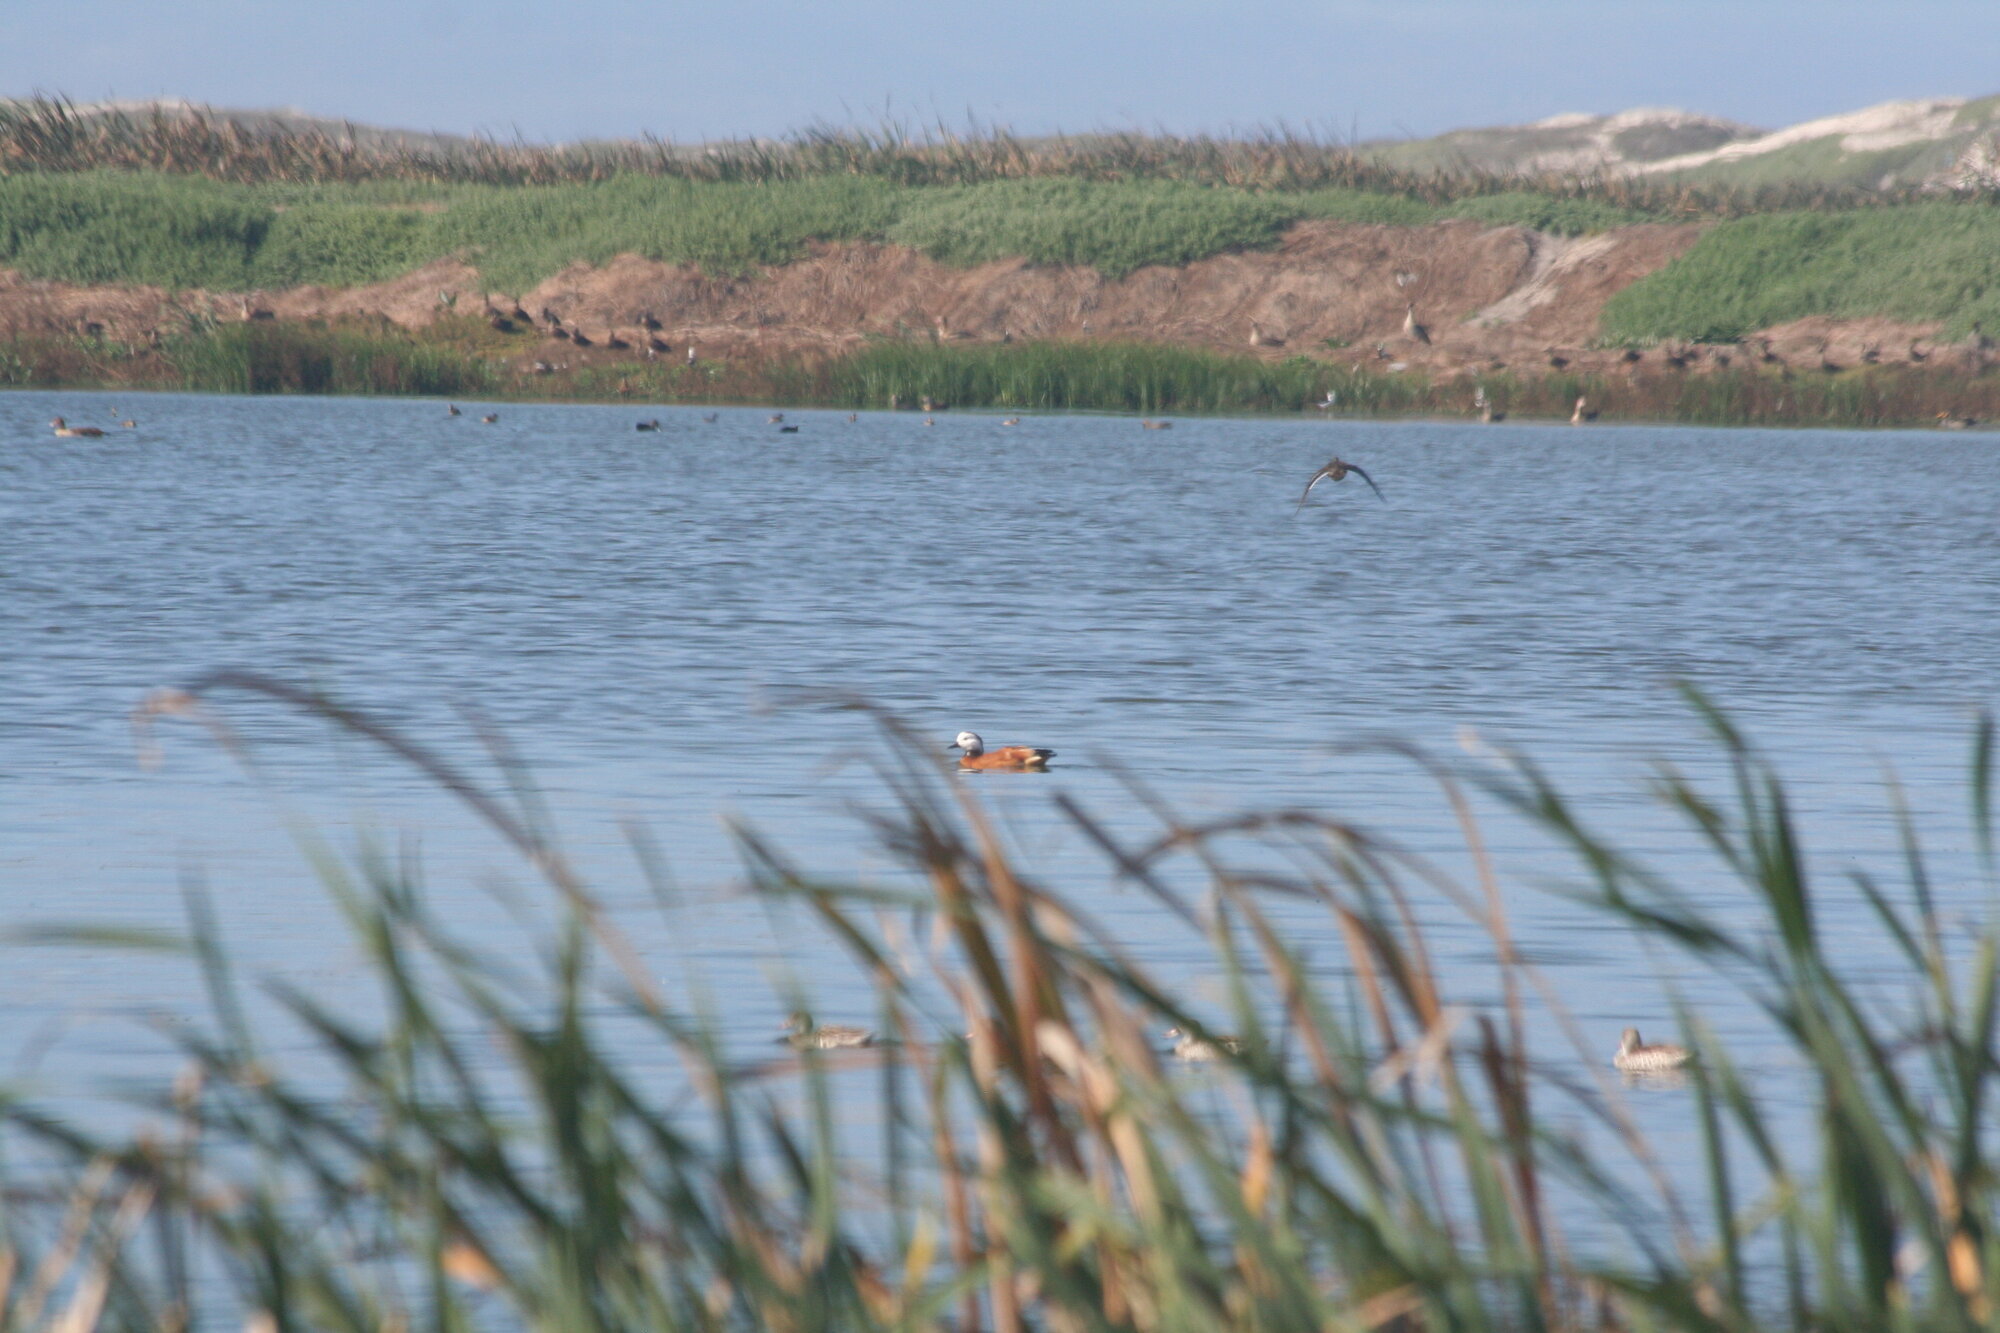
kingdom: Animalia
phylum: Chordata
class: Aves
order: Anseriformes
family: Anatidae
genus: Tadorna
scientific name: Tadorna cana
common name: South african shelduck
